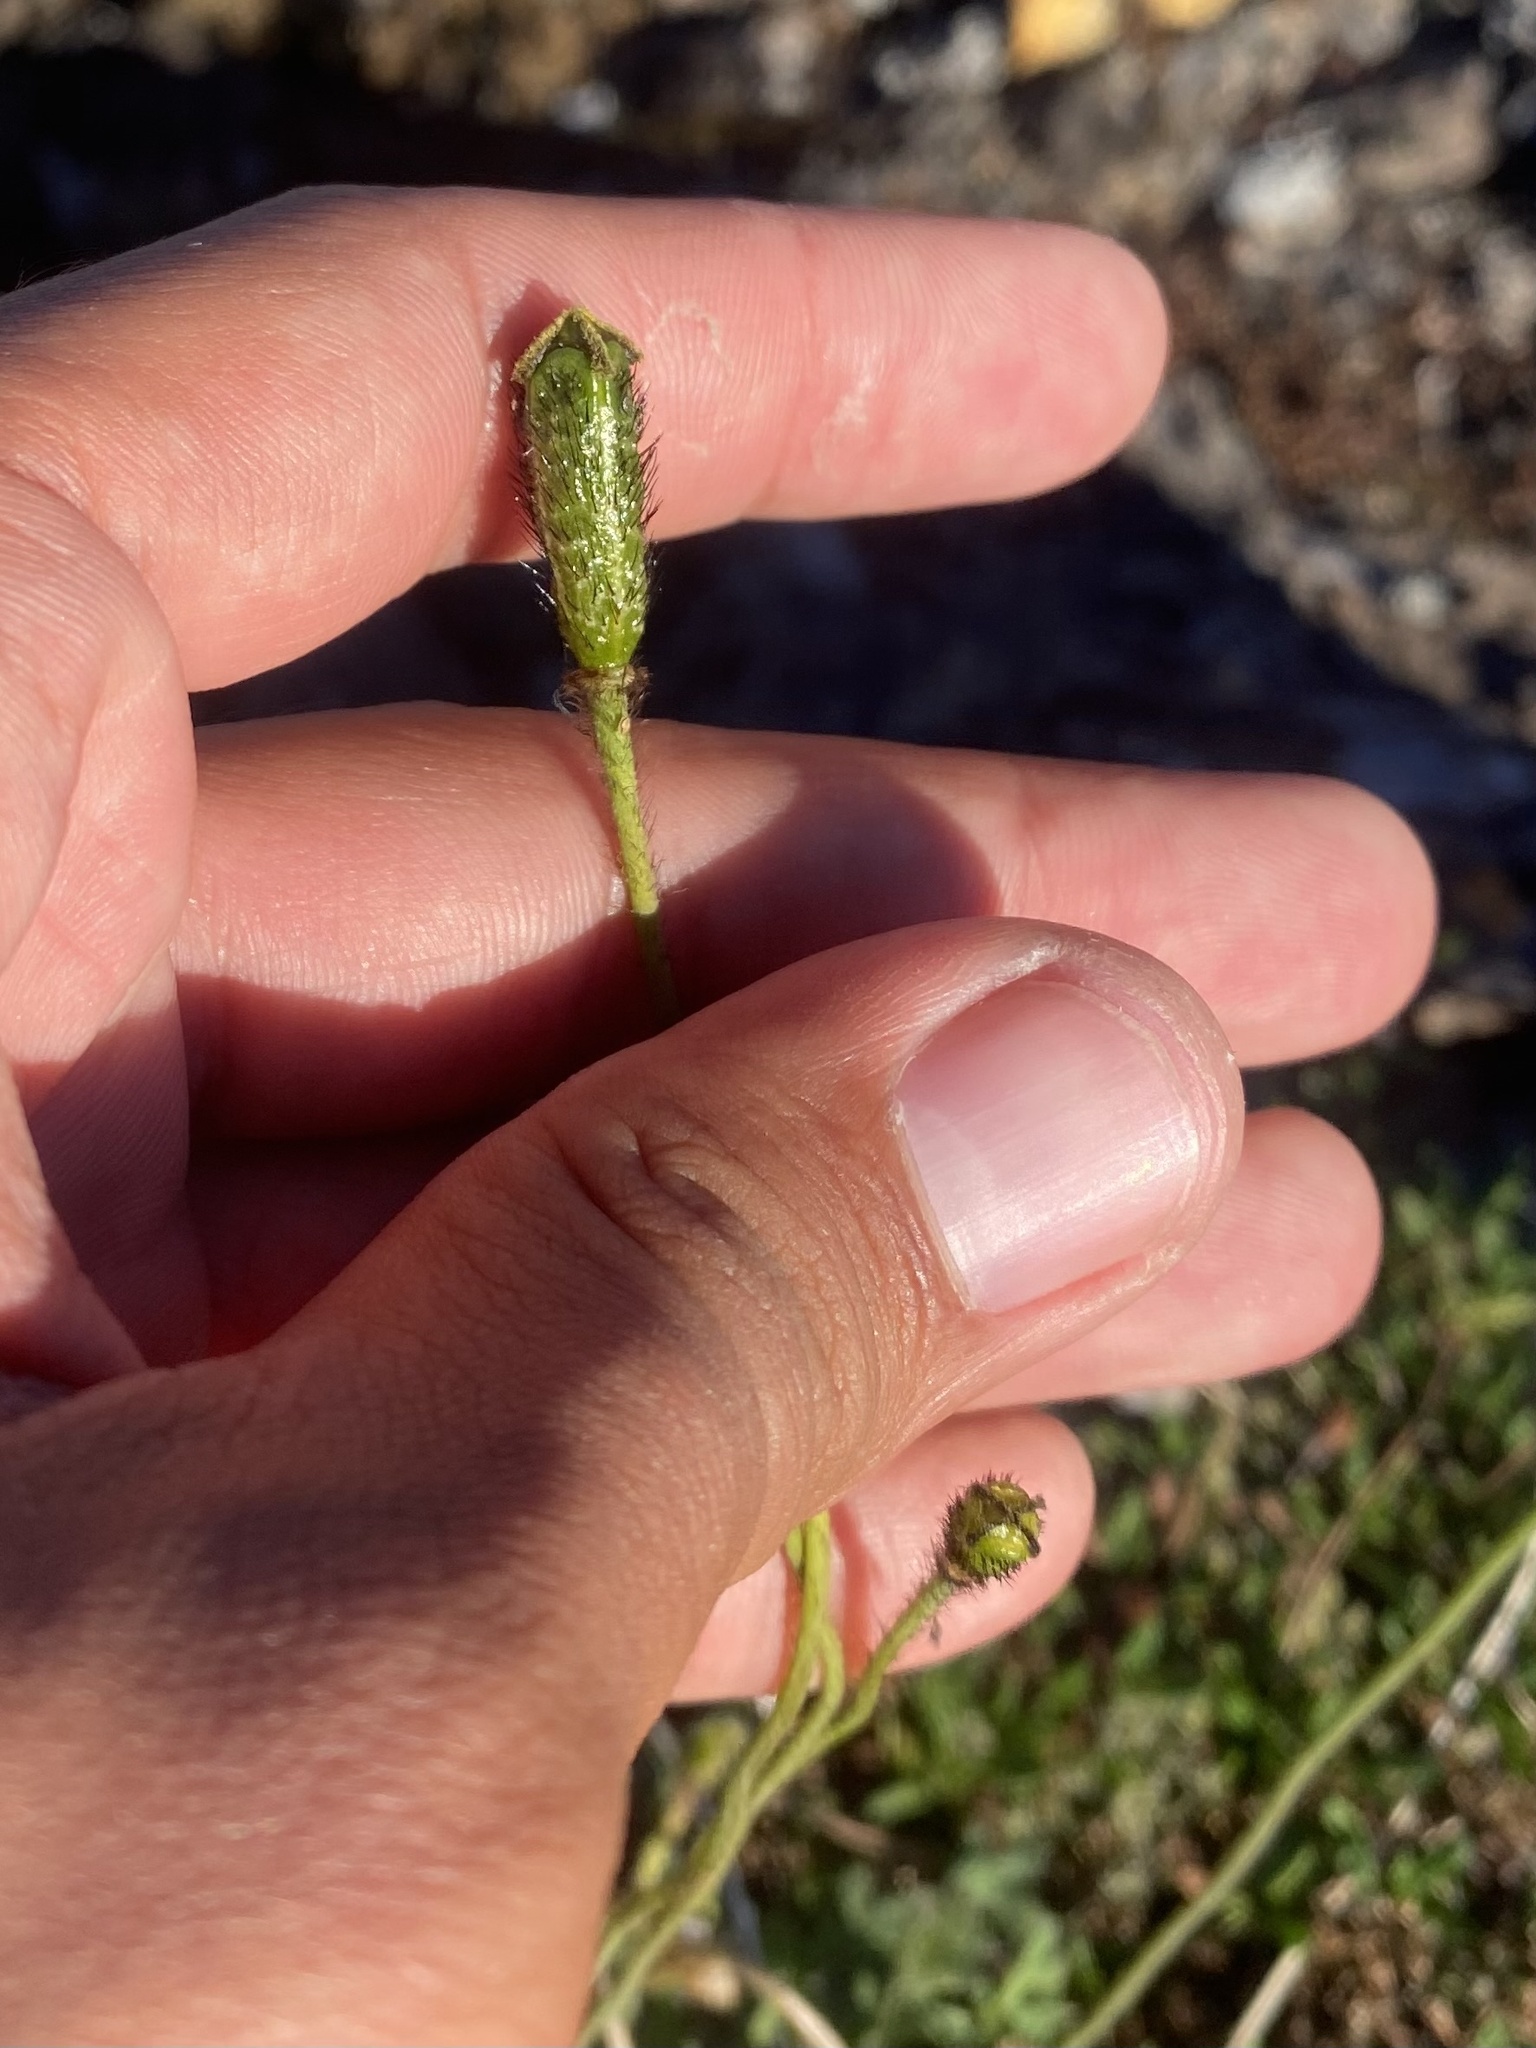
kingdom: Plantae
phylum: Tracheophyta
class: Magnoliopsida
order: Ranunculales
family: Papaveraceae
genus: Papaver
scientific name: Papaver variegatum
